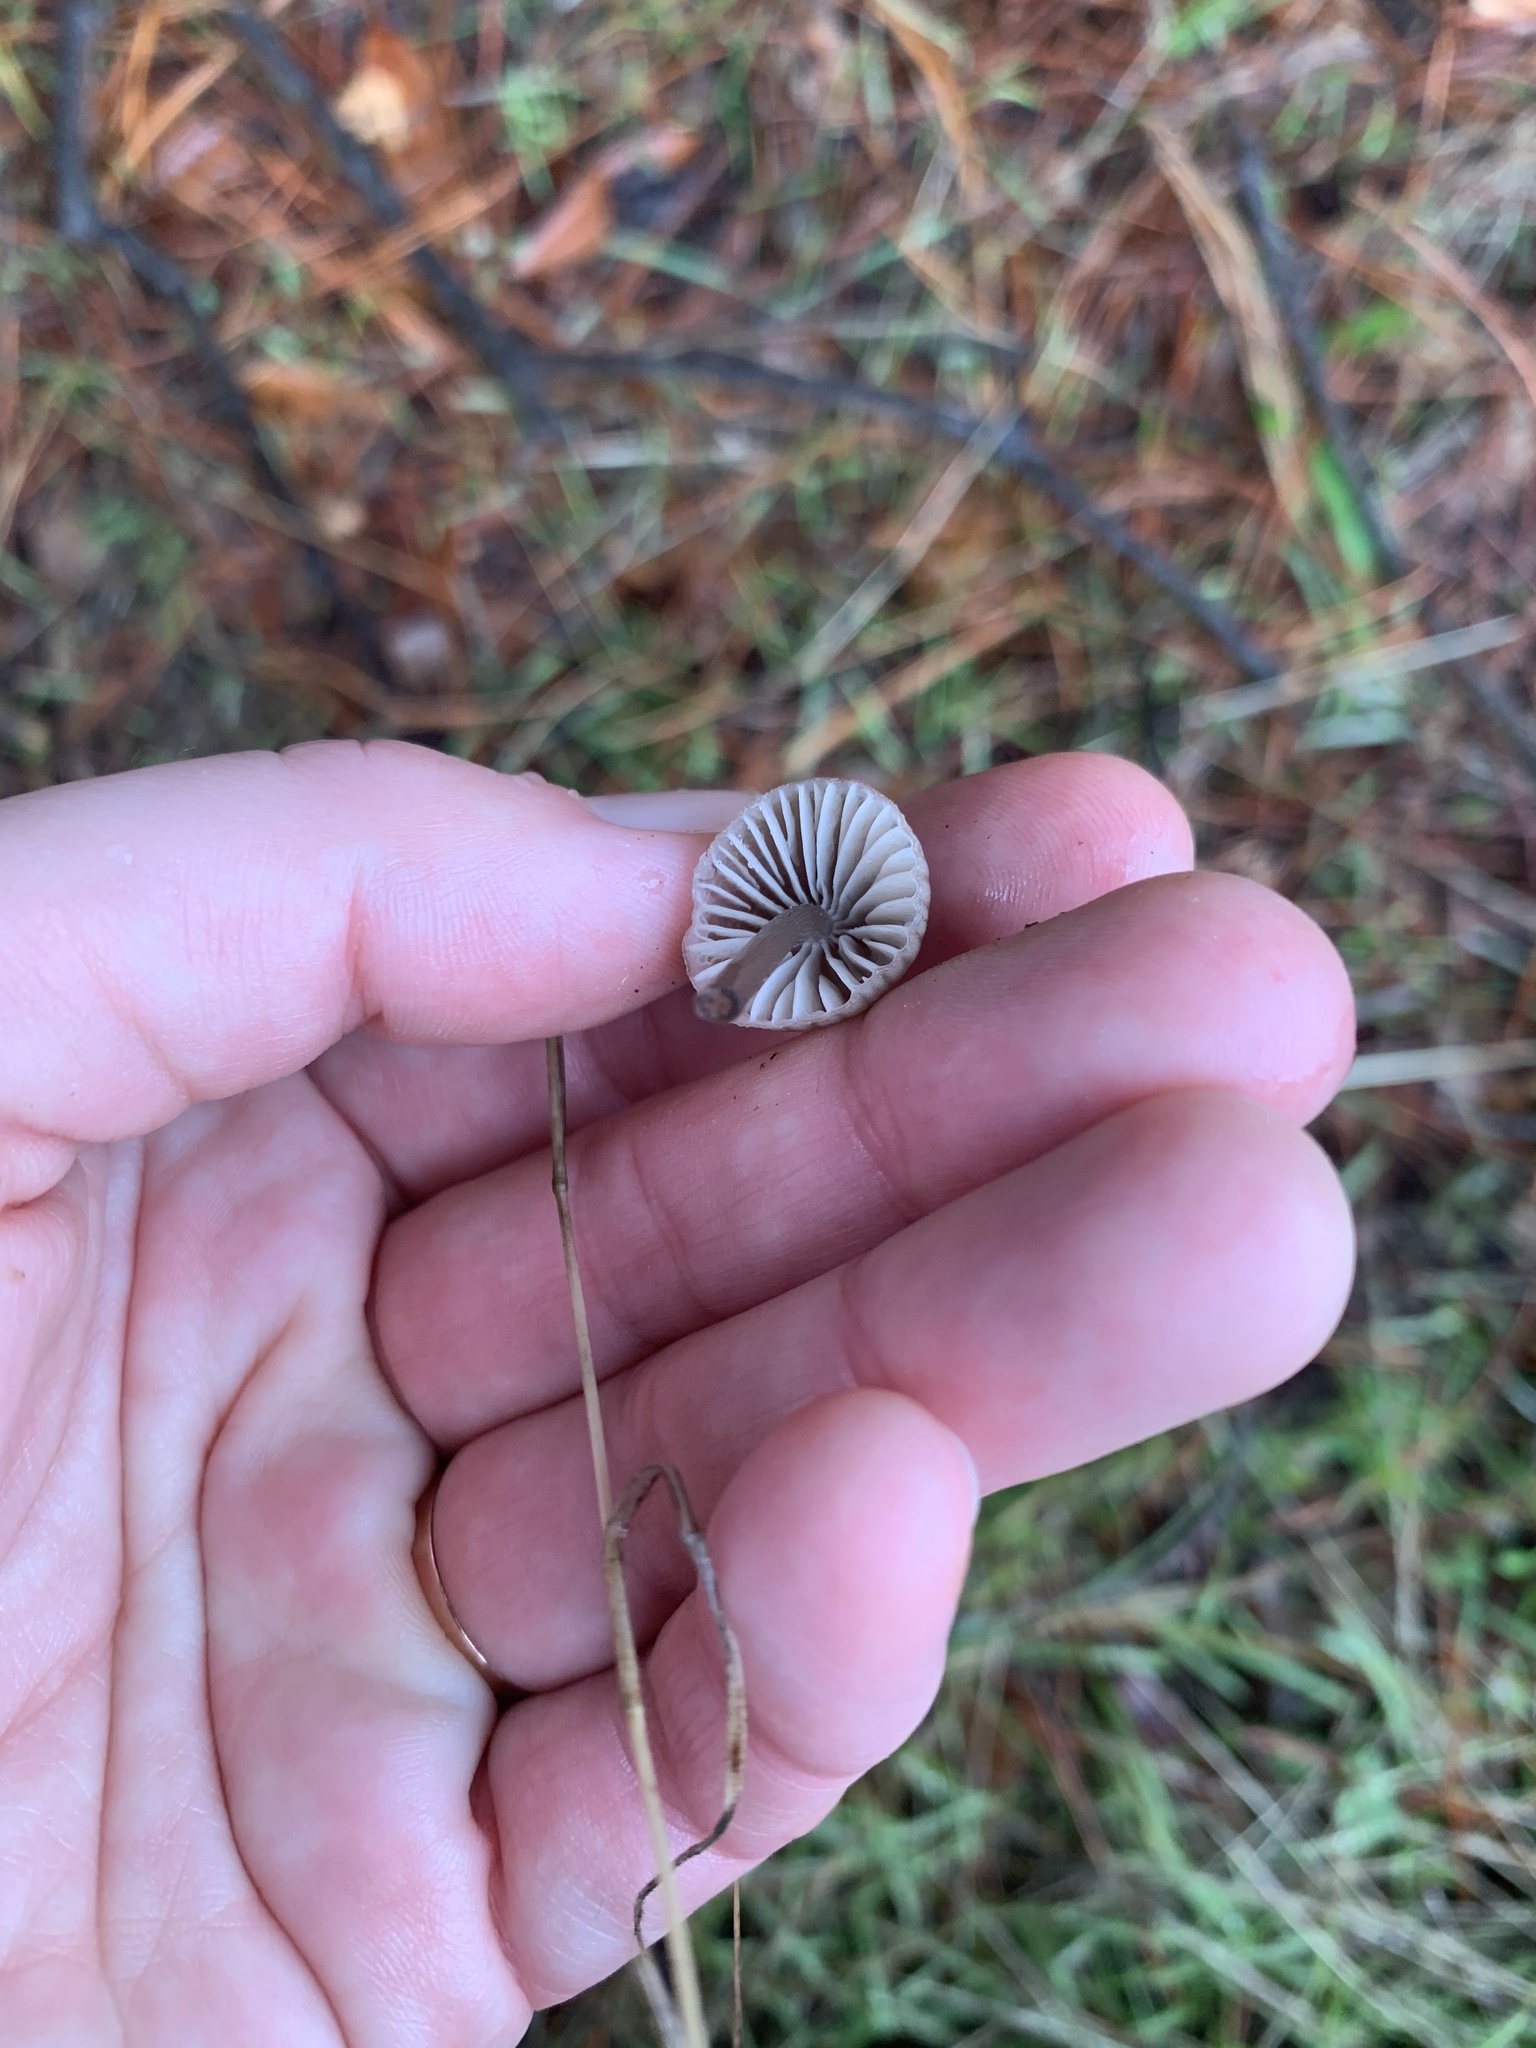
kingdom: Fungi
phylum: Basidiomycota
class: Agaricomycetes
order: Agaricales
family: Mycenaceae
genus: Mycena
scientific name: Mycena leptocephala
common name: Nitrous bonnet
